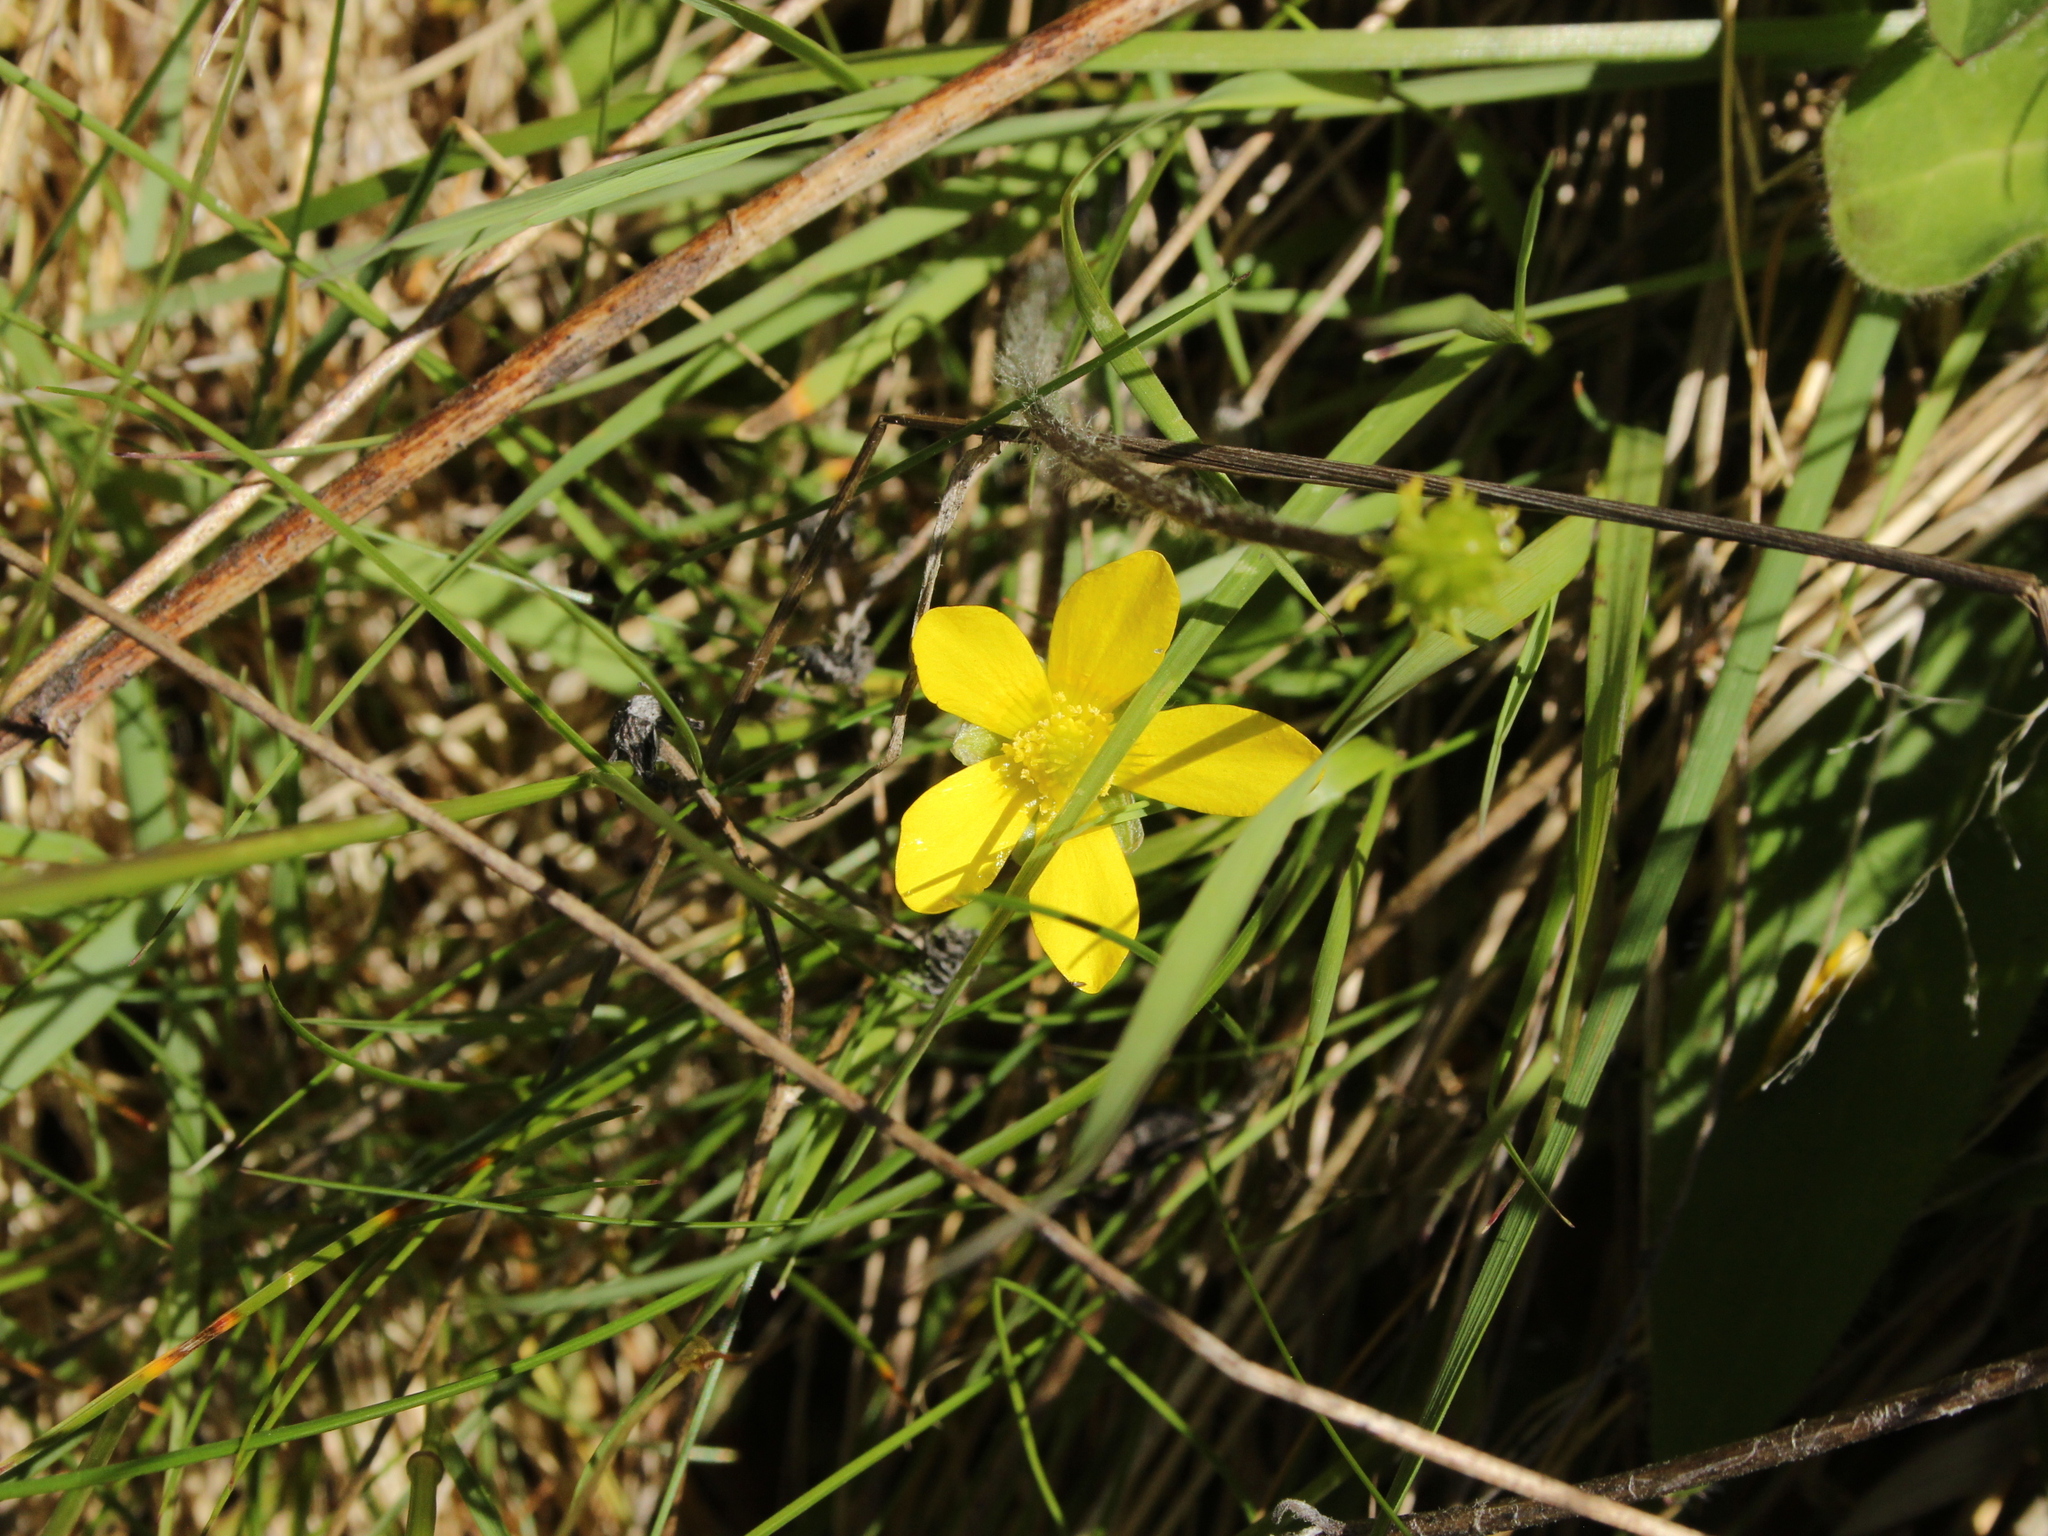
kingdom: Plantae
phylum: Tracheophyta
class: Magnoliopsida
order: Ranunculales
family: Ranunculaceae
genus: Ranunculus
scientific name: Ranunculus multiscapus
